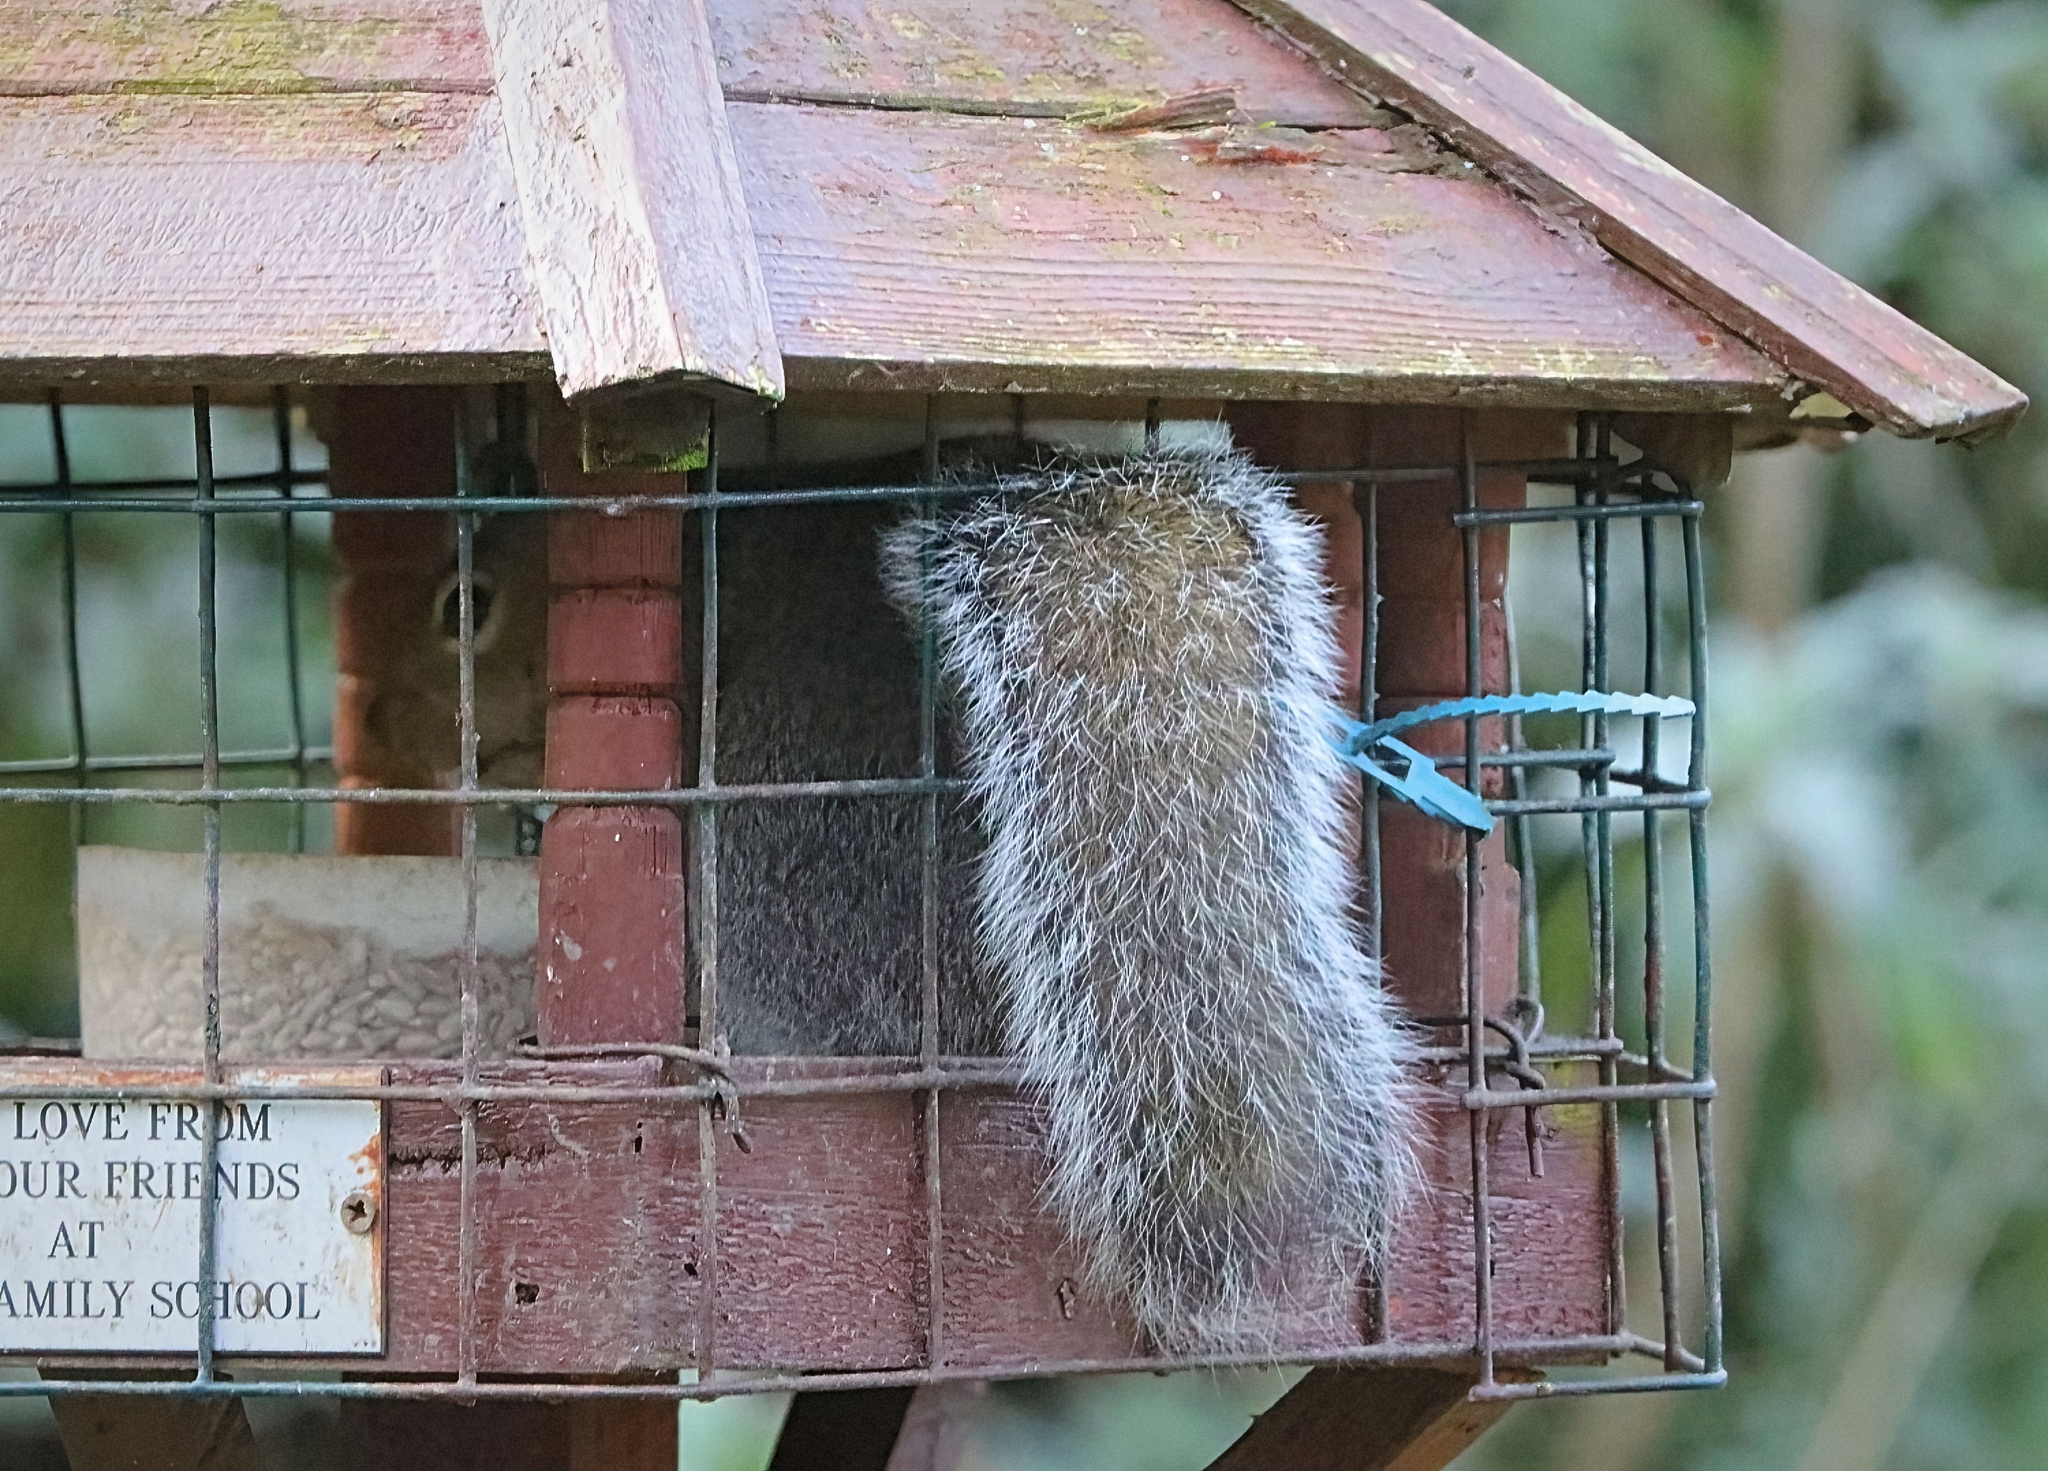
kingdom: Animalia
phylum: Chordata
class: Mammalia
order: Rodentia
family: Sciuridae
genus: Sciurus
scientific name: Sciurus carolinensis
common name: Eastern gray squirrel
